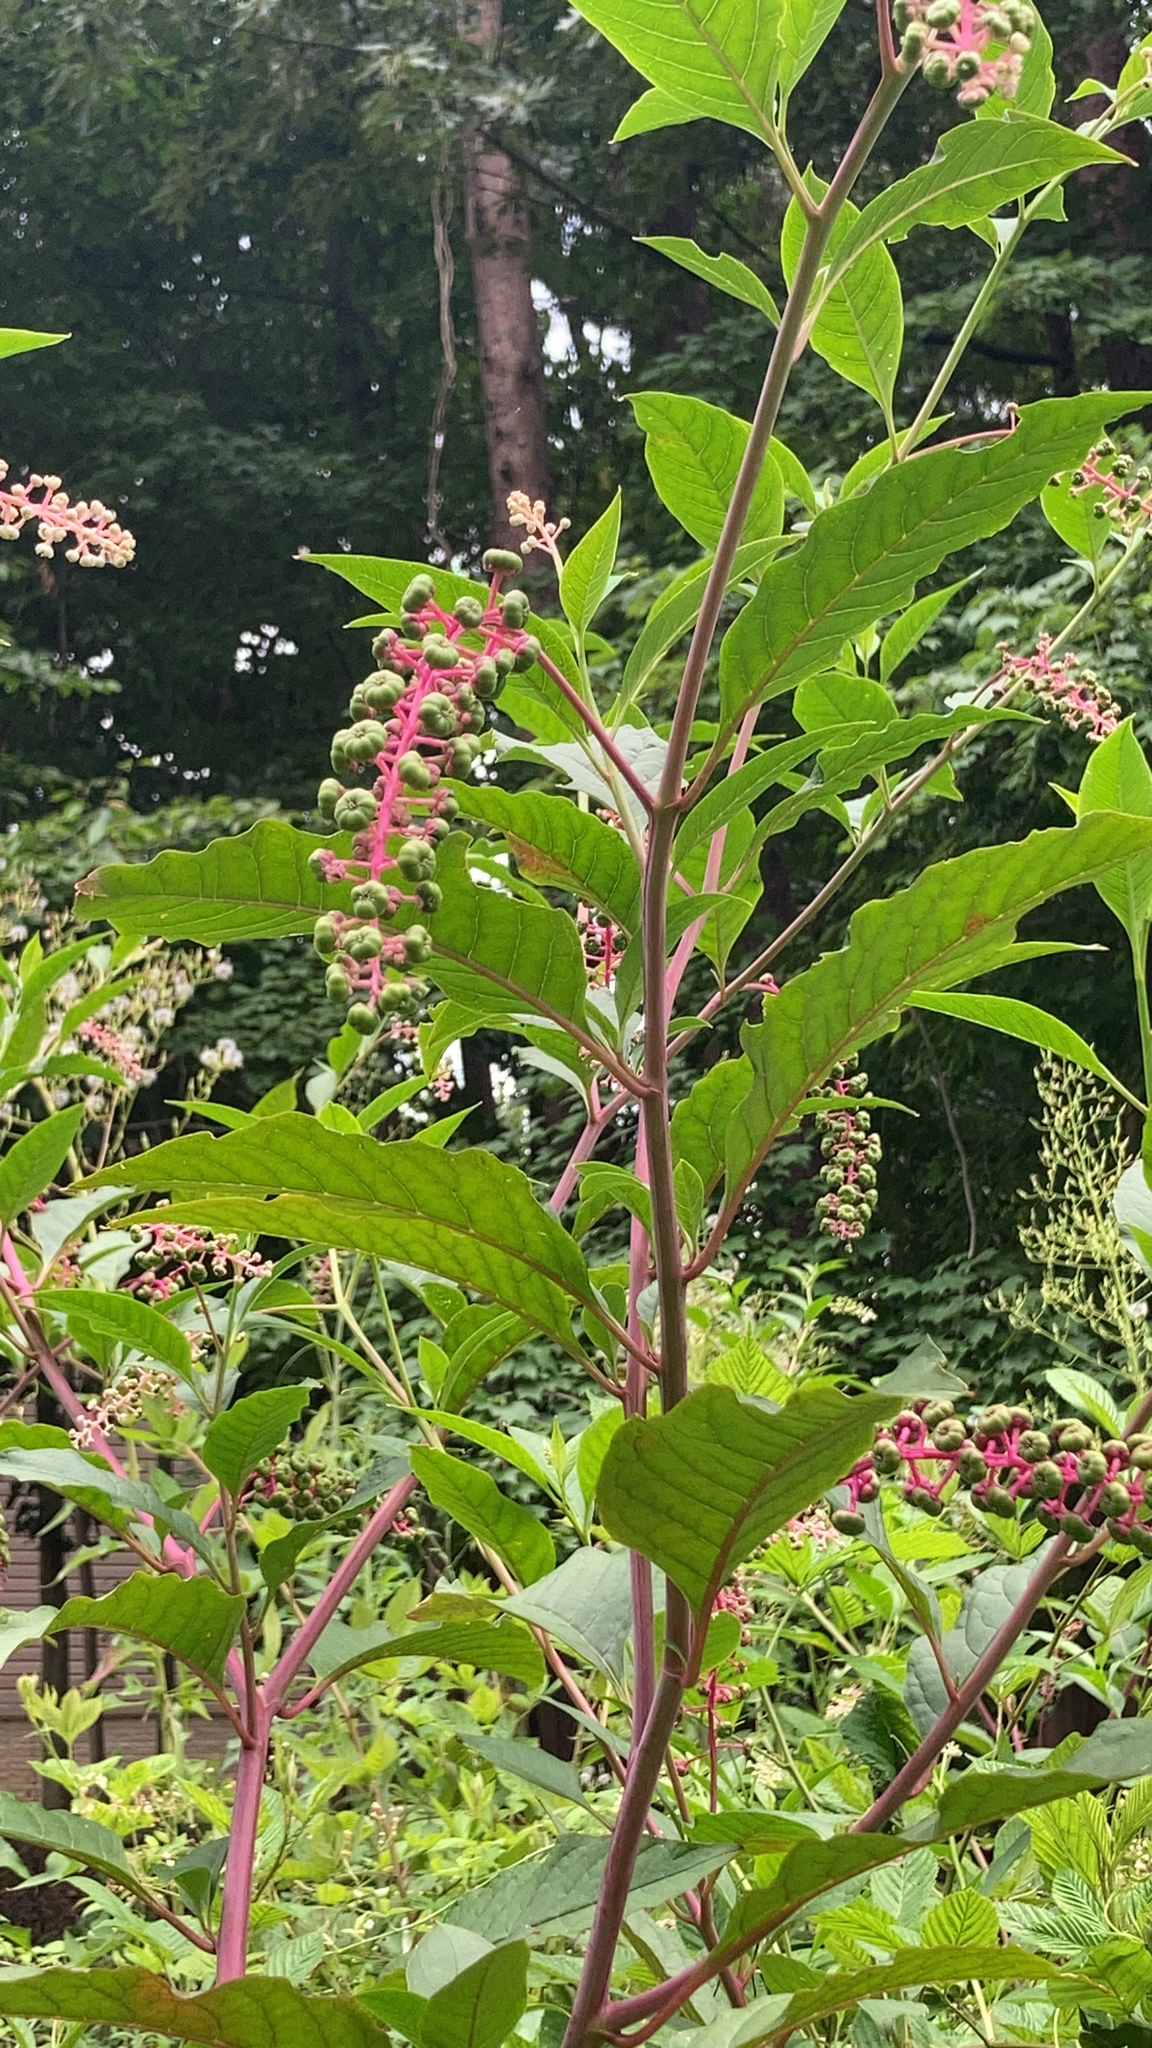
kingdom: Plantae
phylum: Tracheophyta
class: Magnoliopsida
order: Caryophyllales
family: Phytolaccaceae
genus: Phytolacca
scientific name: Phytolacca americana
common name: American pokeweed
